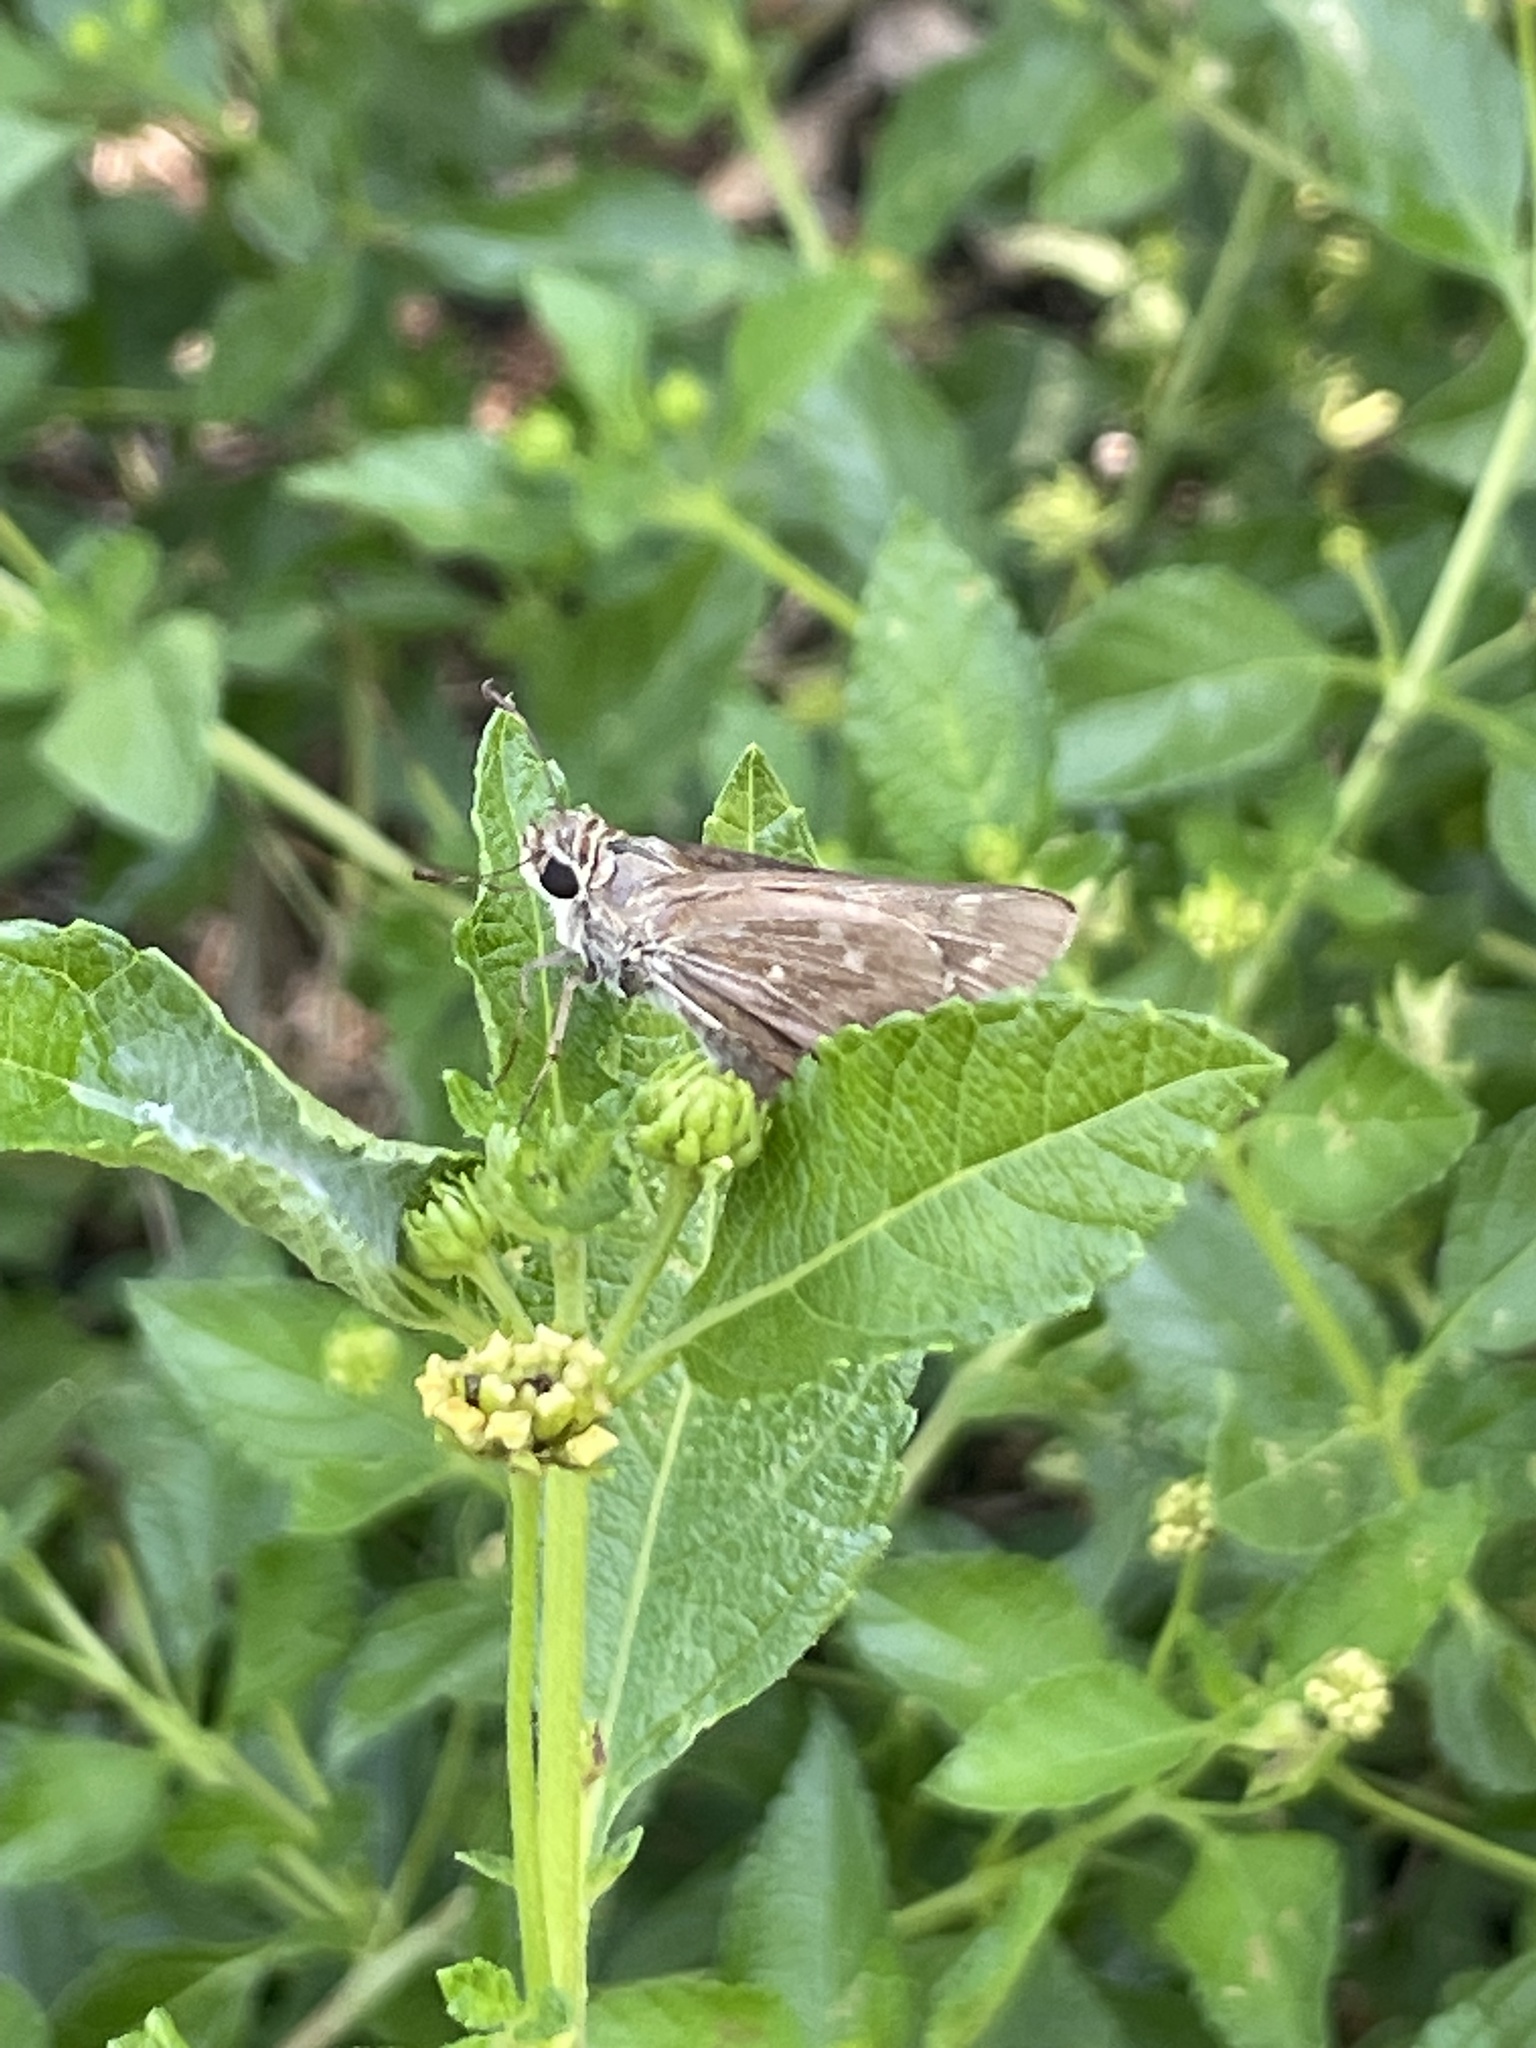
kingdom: Animalia
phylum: Arthropoda
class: Insecta
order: Lepidoptera
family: Hesperiidae
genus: Atalopedes
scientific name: Atalopedes
